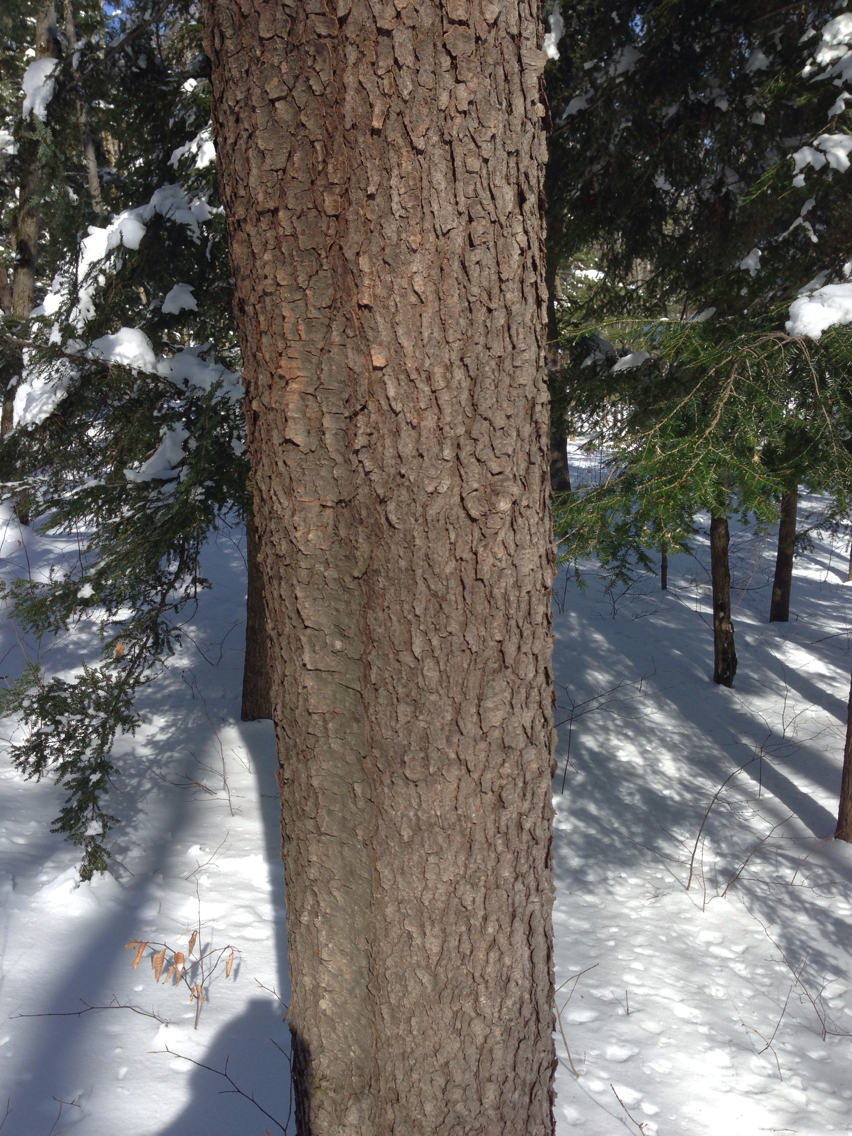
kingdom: Plantae
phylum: Tracheophyta
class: Magnoliopsida
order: Rosales
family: Rosaceae
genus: Prunus
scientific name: Prunus serotina
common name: Black cherry
